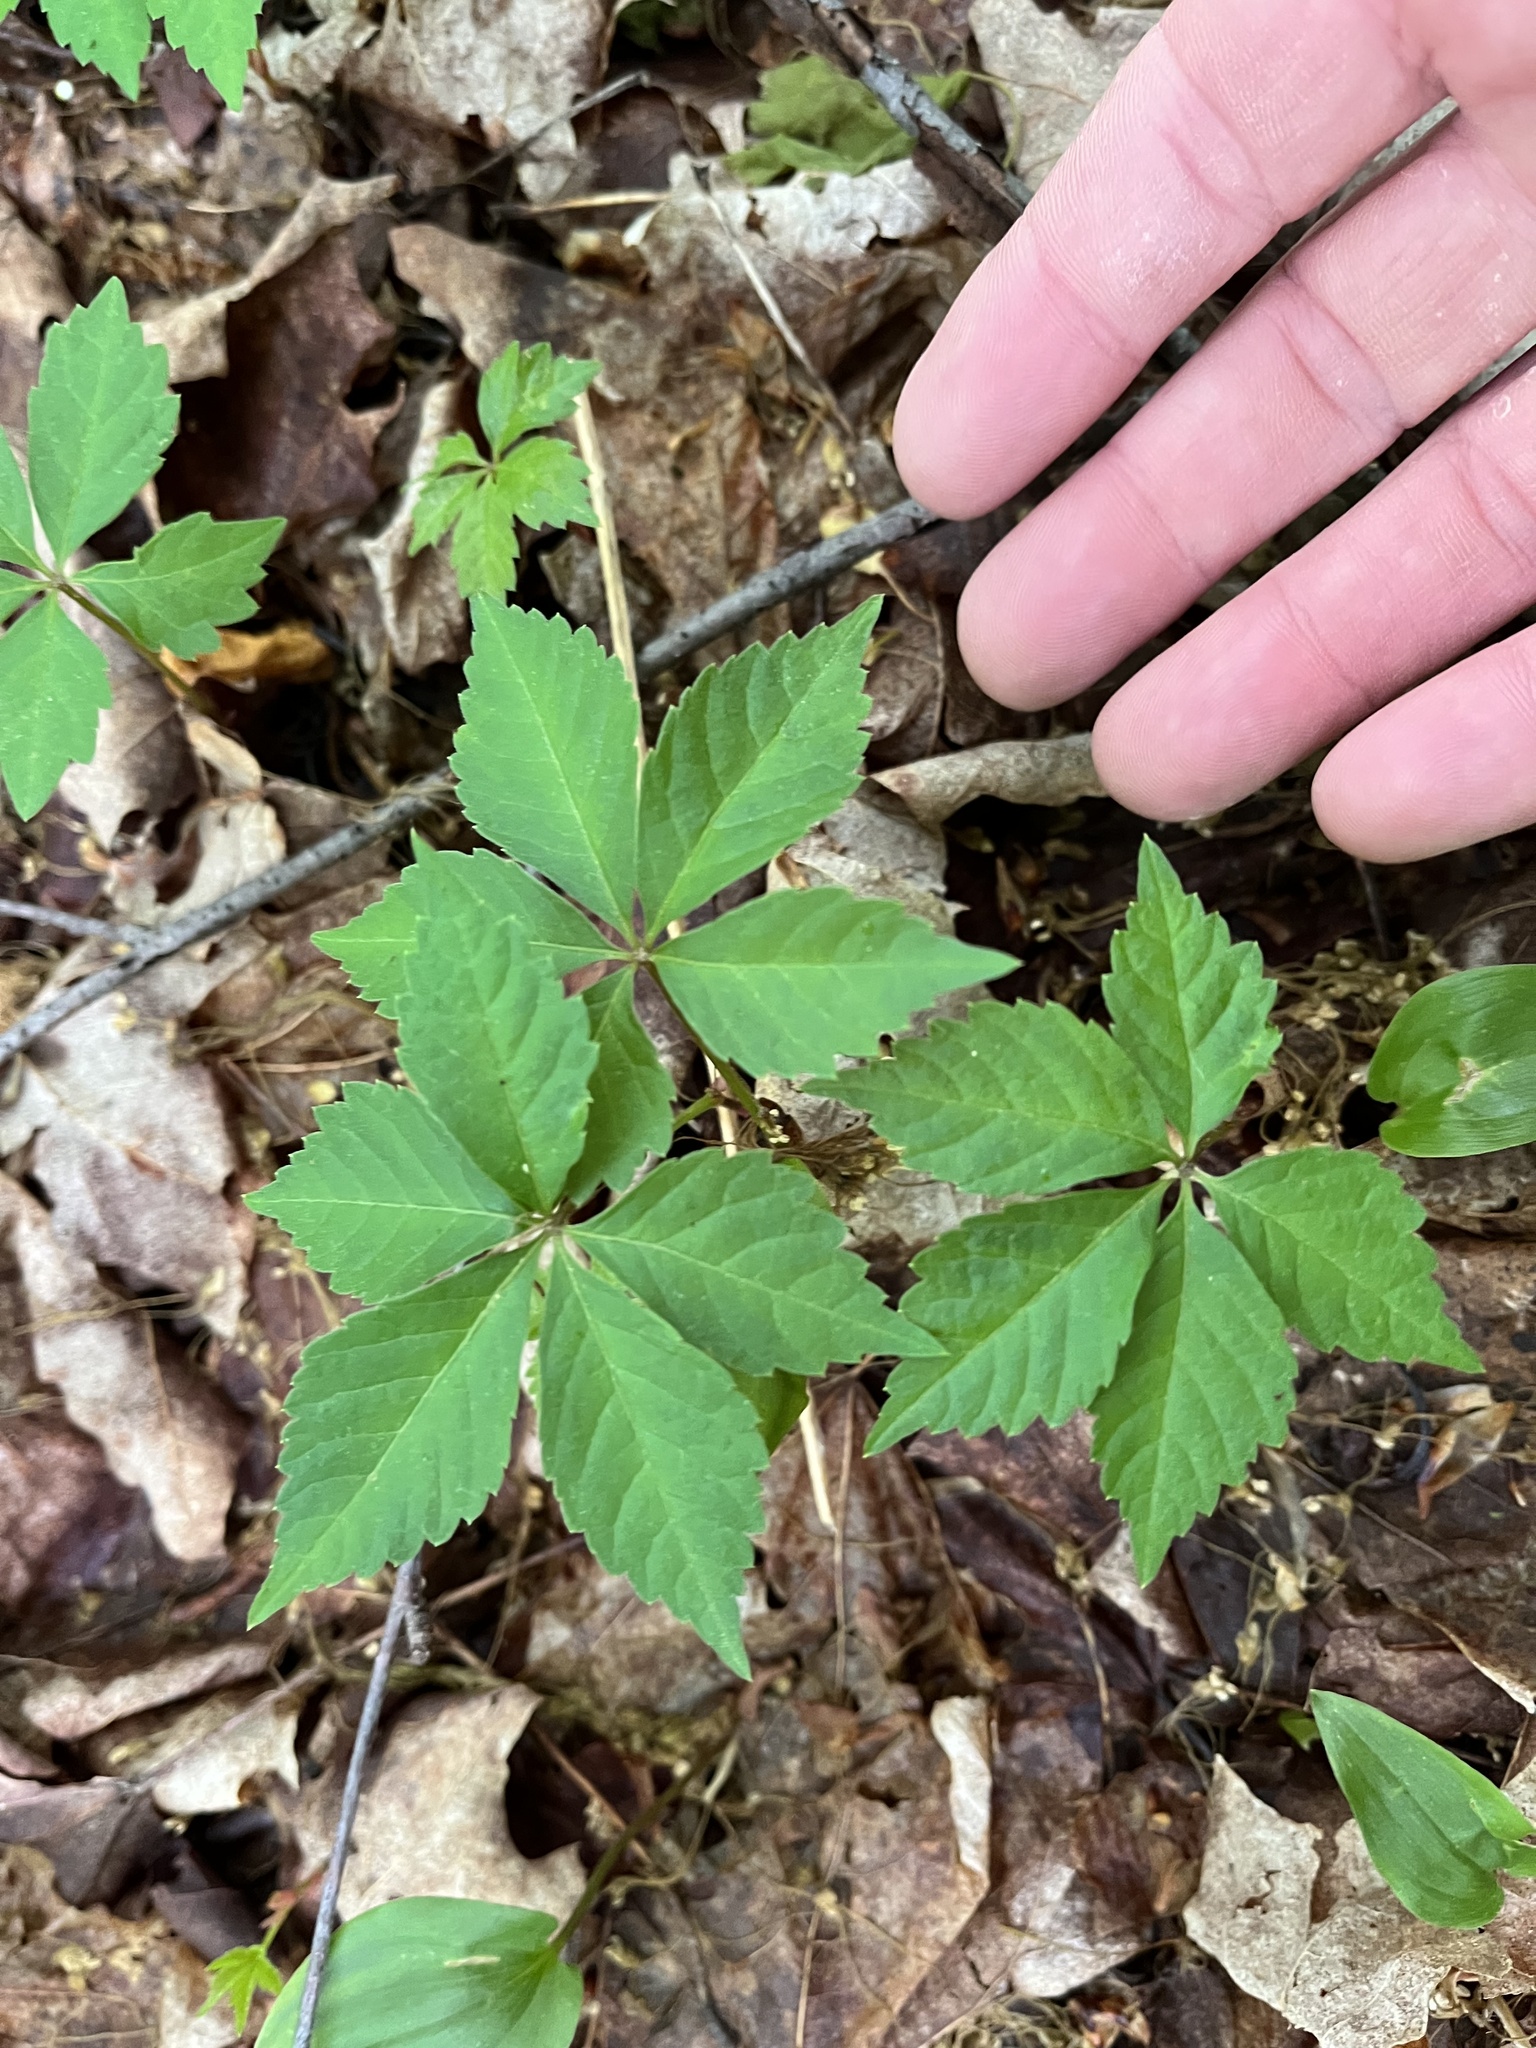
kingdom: Plantae
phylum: Tracheophyta
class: Magnoliopsida
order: Vitales
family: Vitaceae
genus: Parthenocissus
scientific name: Parthenocissus quinquefolia
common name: Virginia-creeper
